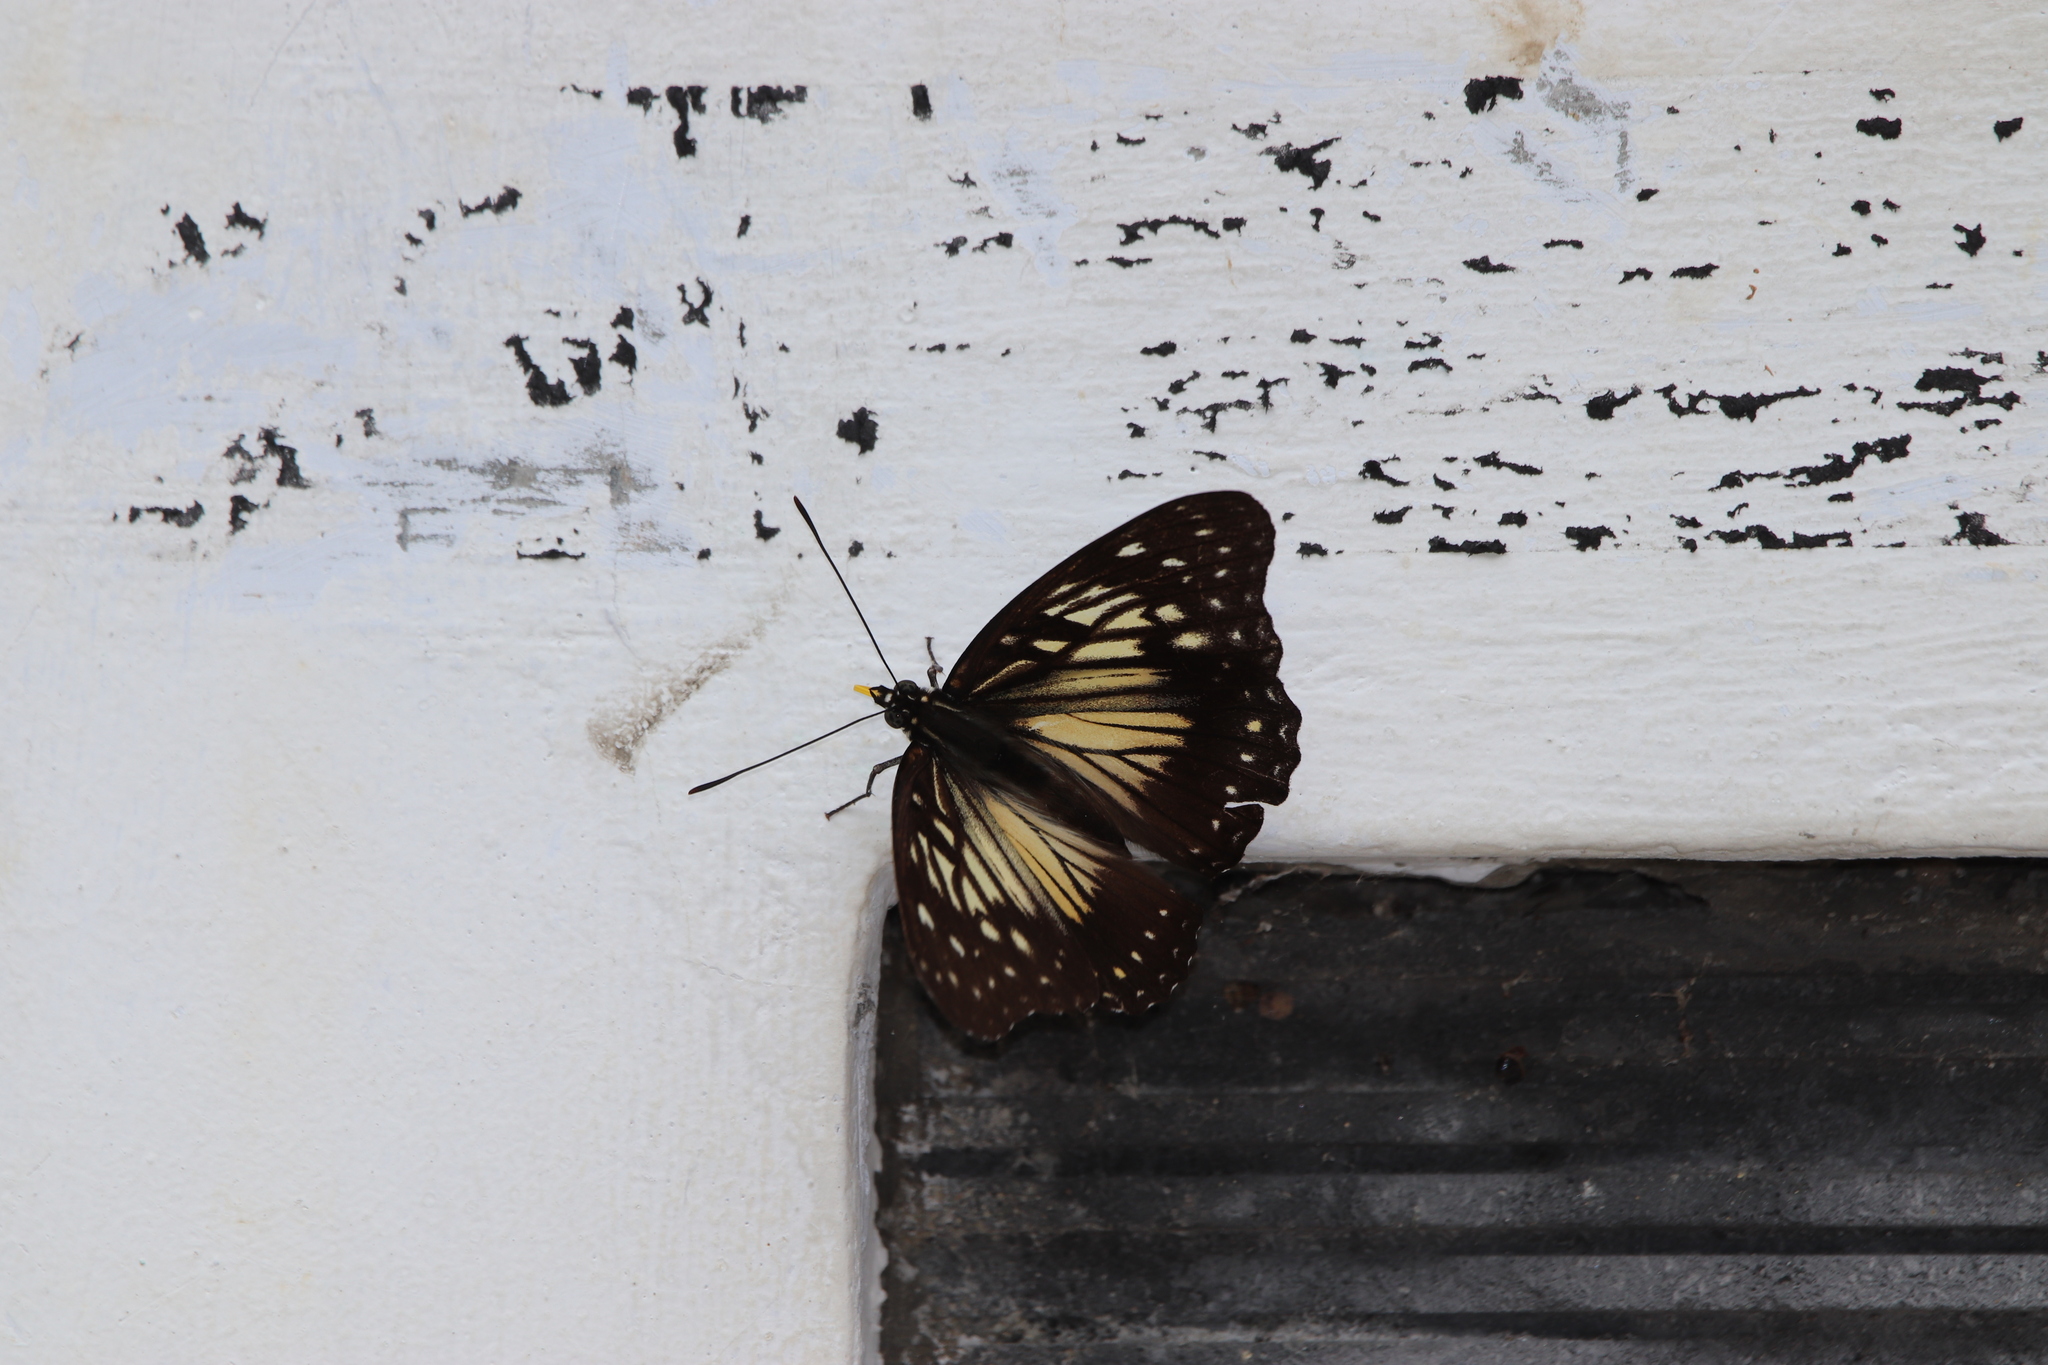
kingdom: Animalia
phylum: Arthropoda
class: Insecta
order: Lepidoptera
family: Nymphalidae
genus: Hestinalis
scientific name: Hestinalis divona
